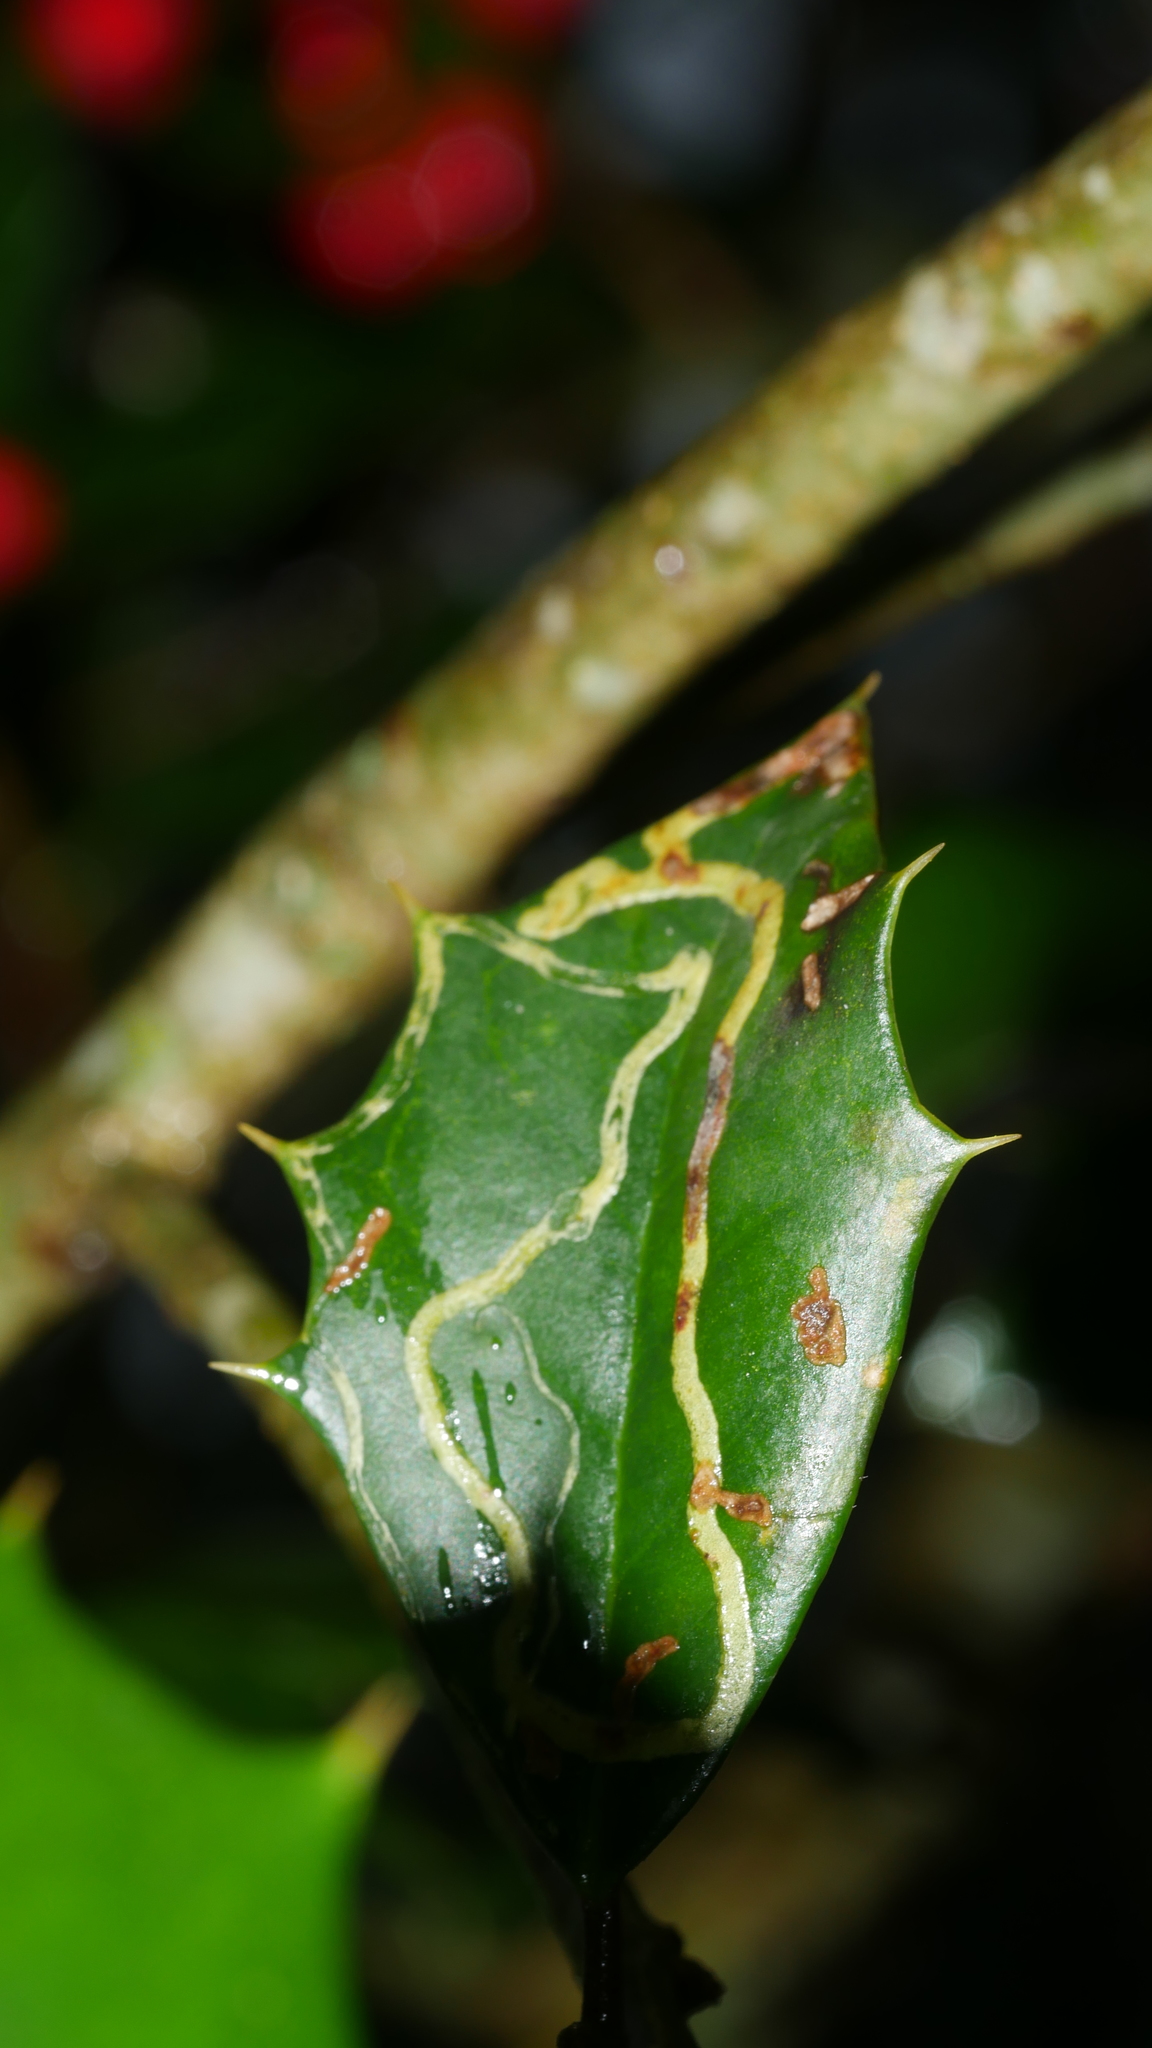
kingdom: Animalia
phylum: Arthropoda
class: Insecta
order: Diptera
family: Agromyzidae
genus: Phytomyza
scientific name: Phytomyza opacae
